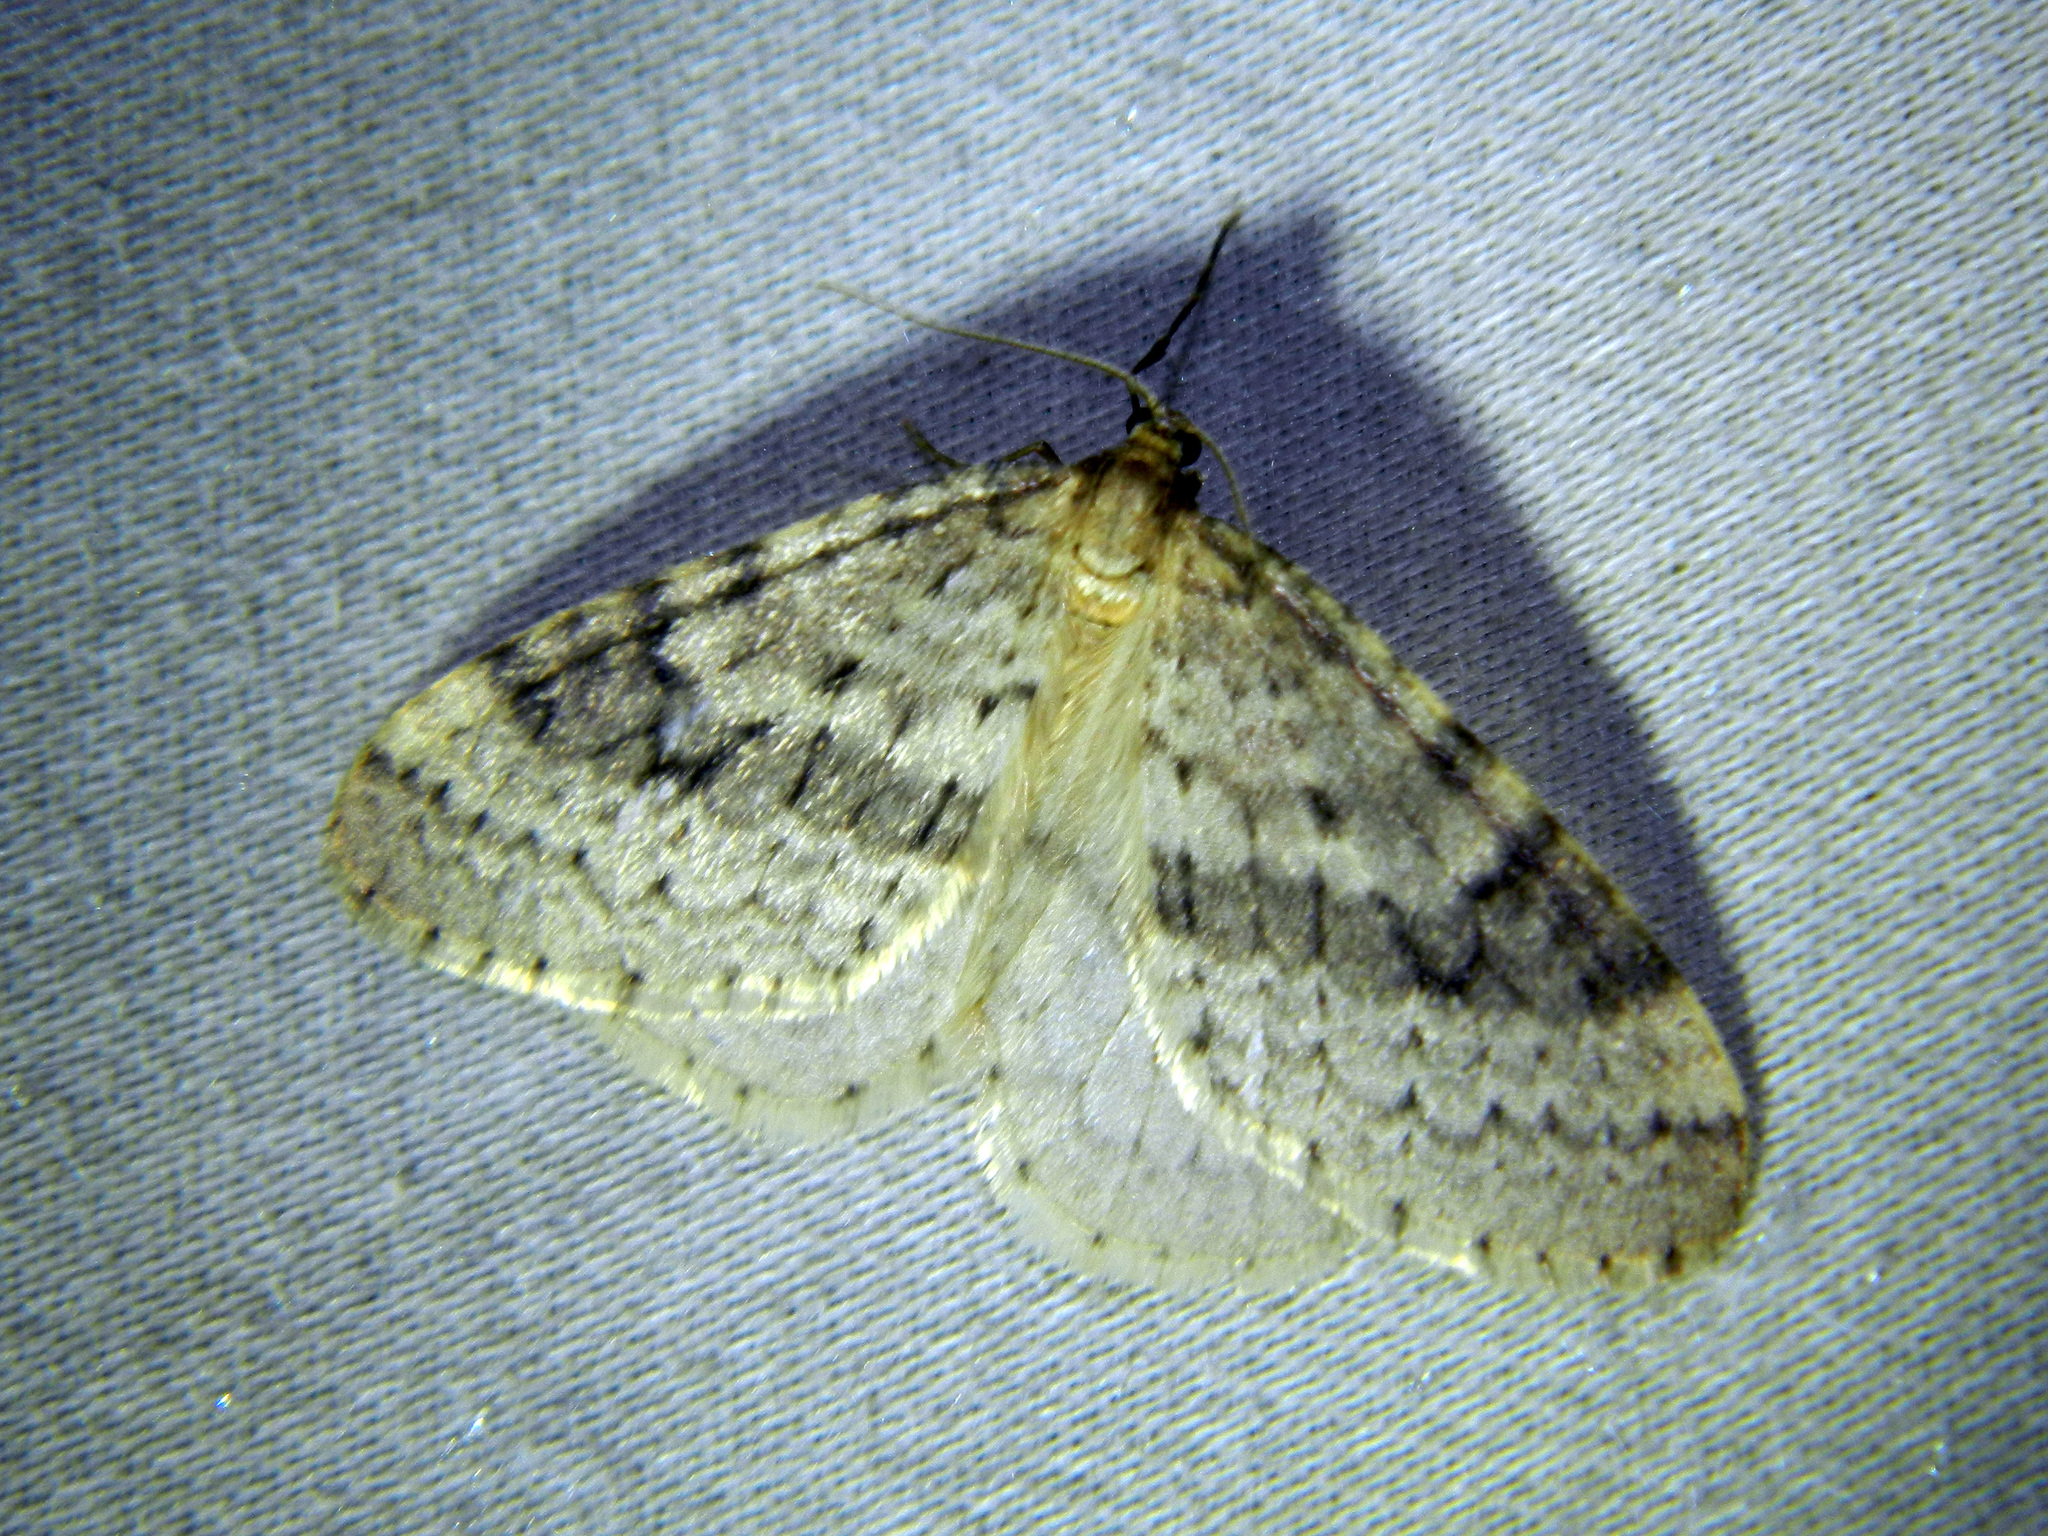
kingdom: Animalia
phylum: Arthropoda
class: Insecta
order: Lepidoptera
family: Geometridae
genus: Operophtera
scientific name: Operophtera bruceata
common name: Bruce spanworm
